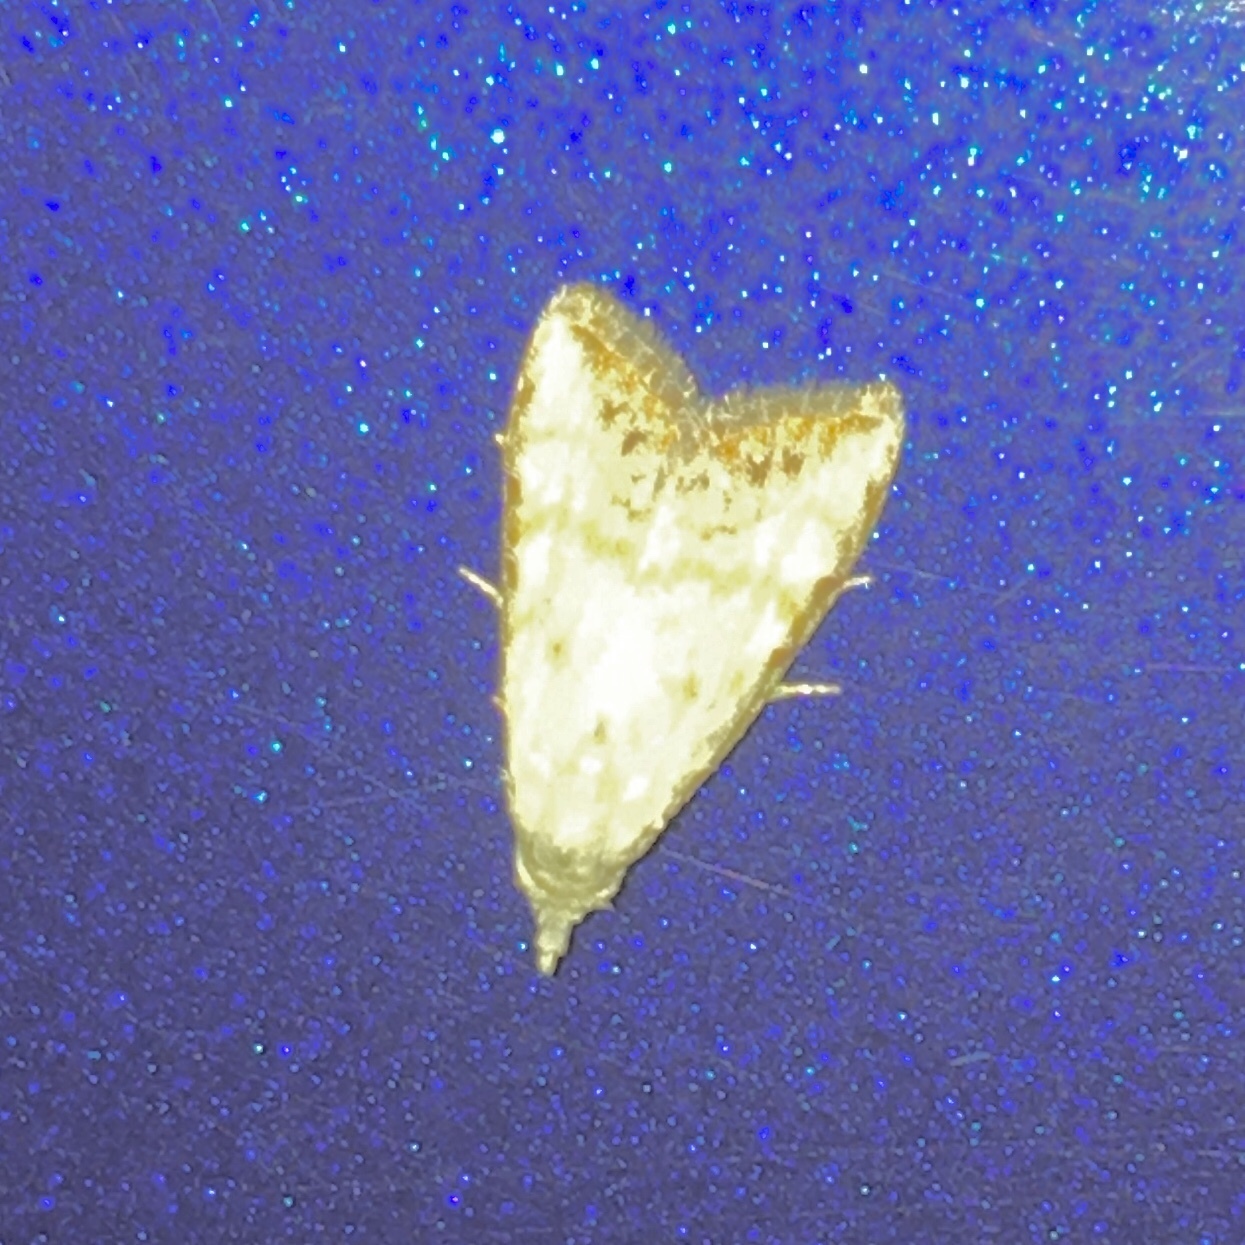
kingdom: Animalia
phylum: Arthropoda
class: Insecta
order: Lepidoptera
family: Nolidae
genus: Nola
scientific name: Nola cereella
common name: Sorghum webworm moth
